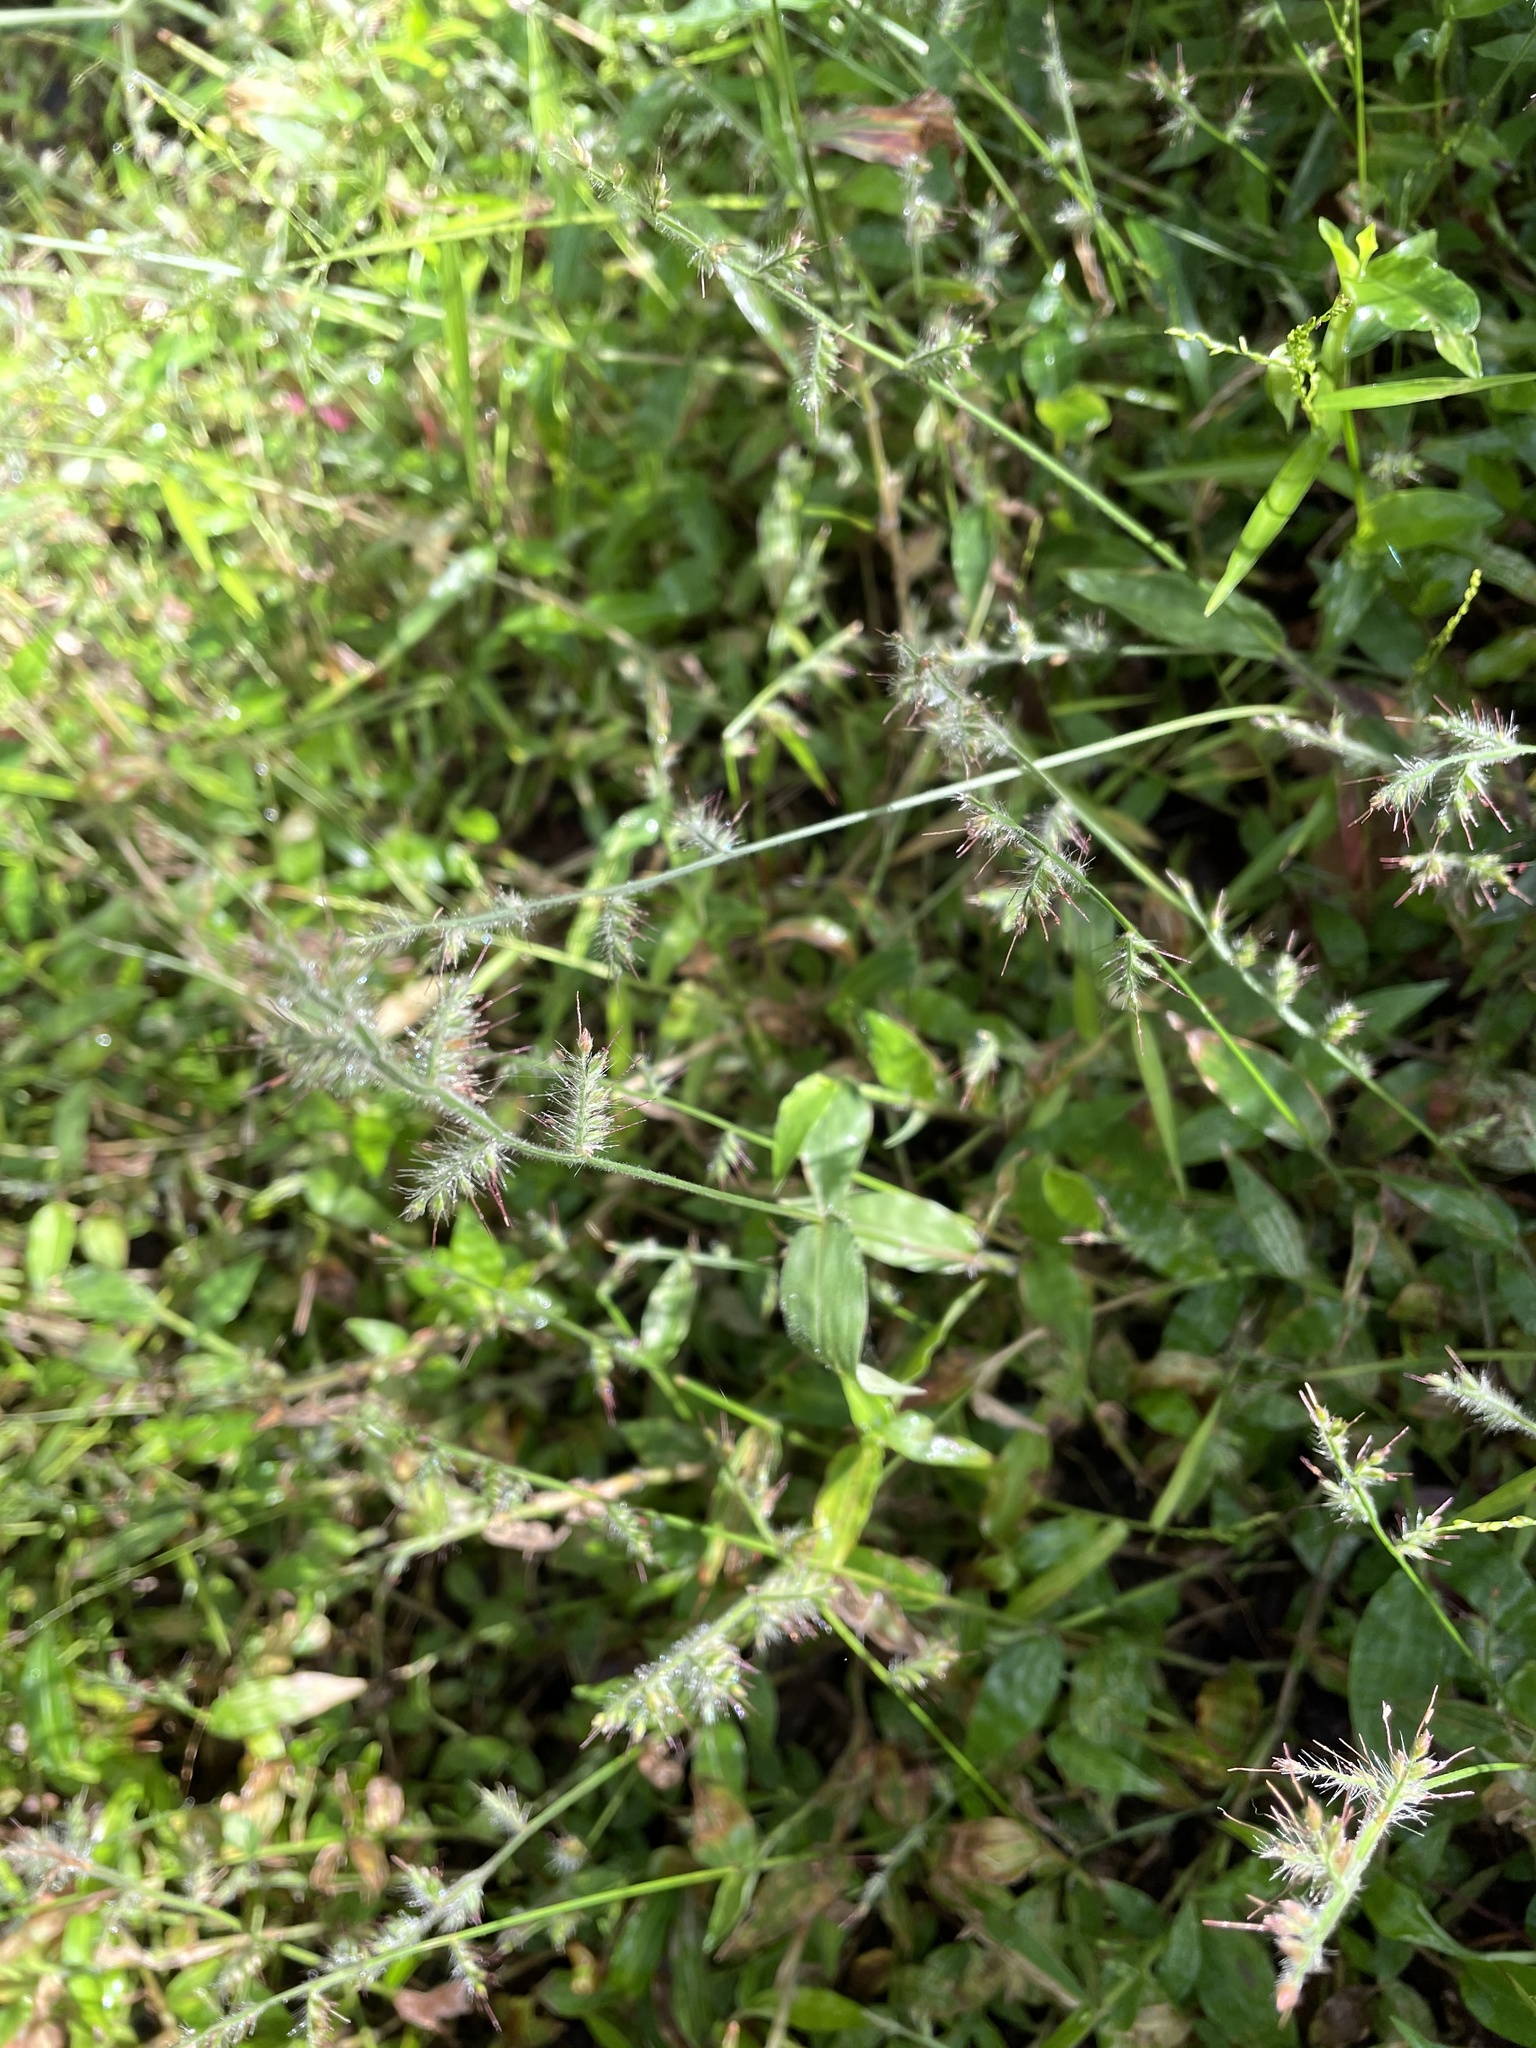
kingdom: Plantae
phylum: Tracheophyta
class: Liliopsida
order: Poales
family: Poaceae
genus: Oplismenus
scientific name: Oplismenus hirtellus
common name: Basketgrass
